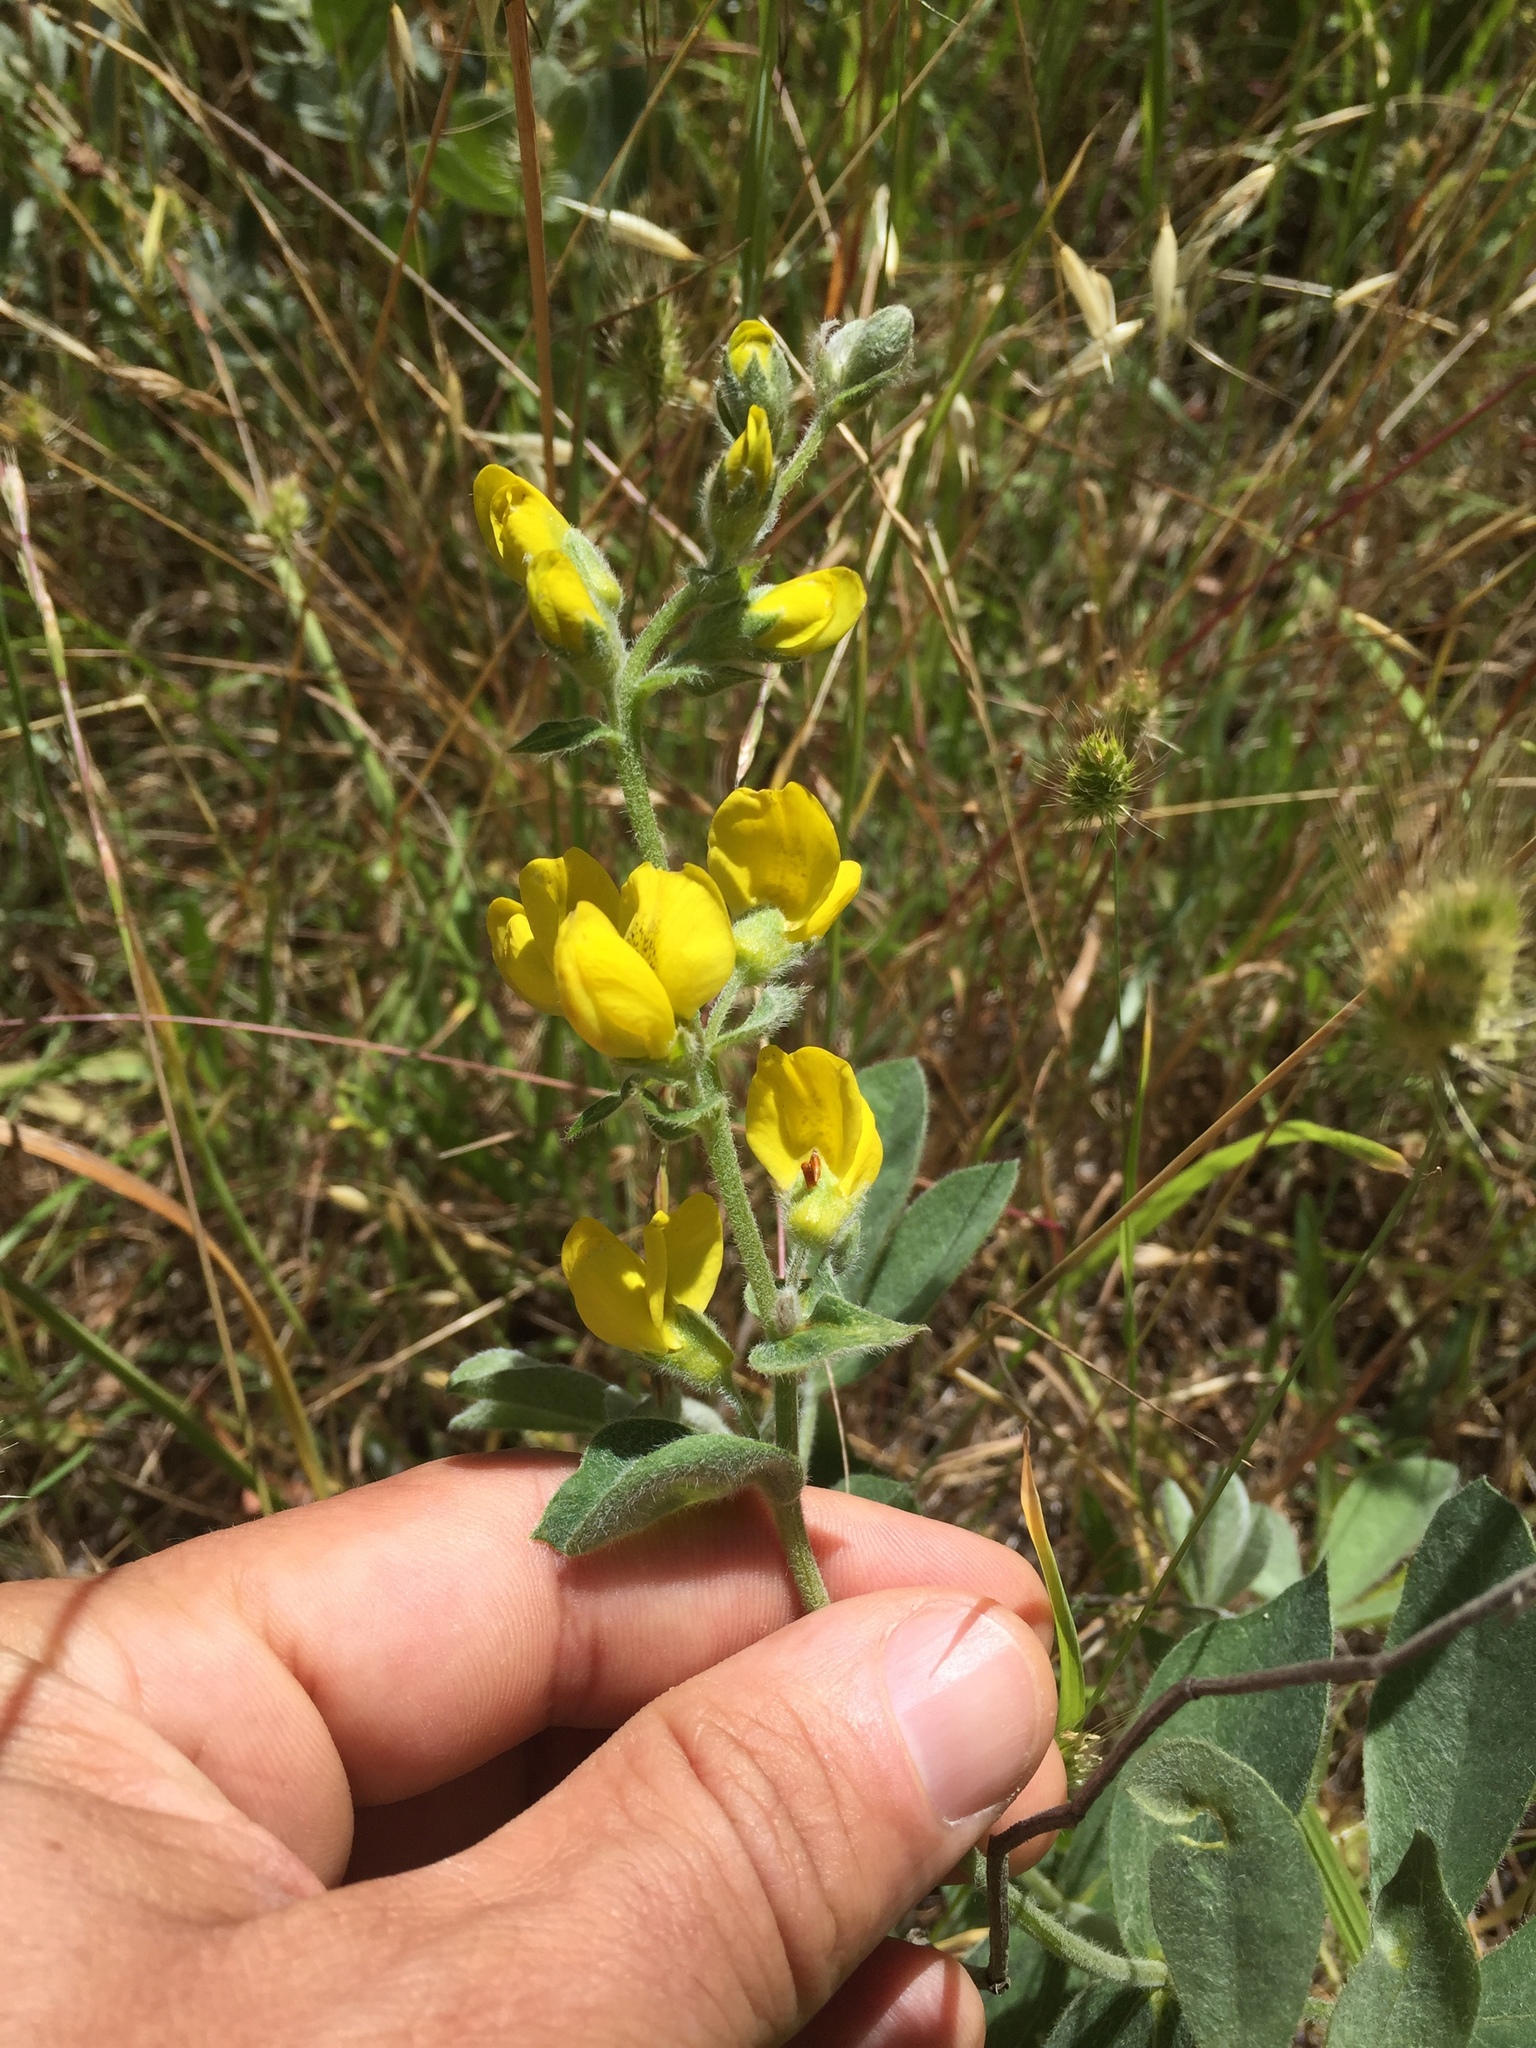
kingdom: Plantae
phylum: Tracheophyta
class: Magnoliopsida
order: Fabales
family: Fabaceae
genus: Thermopsis
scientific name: Thermopsis californica
